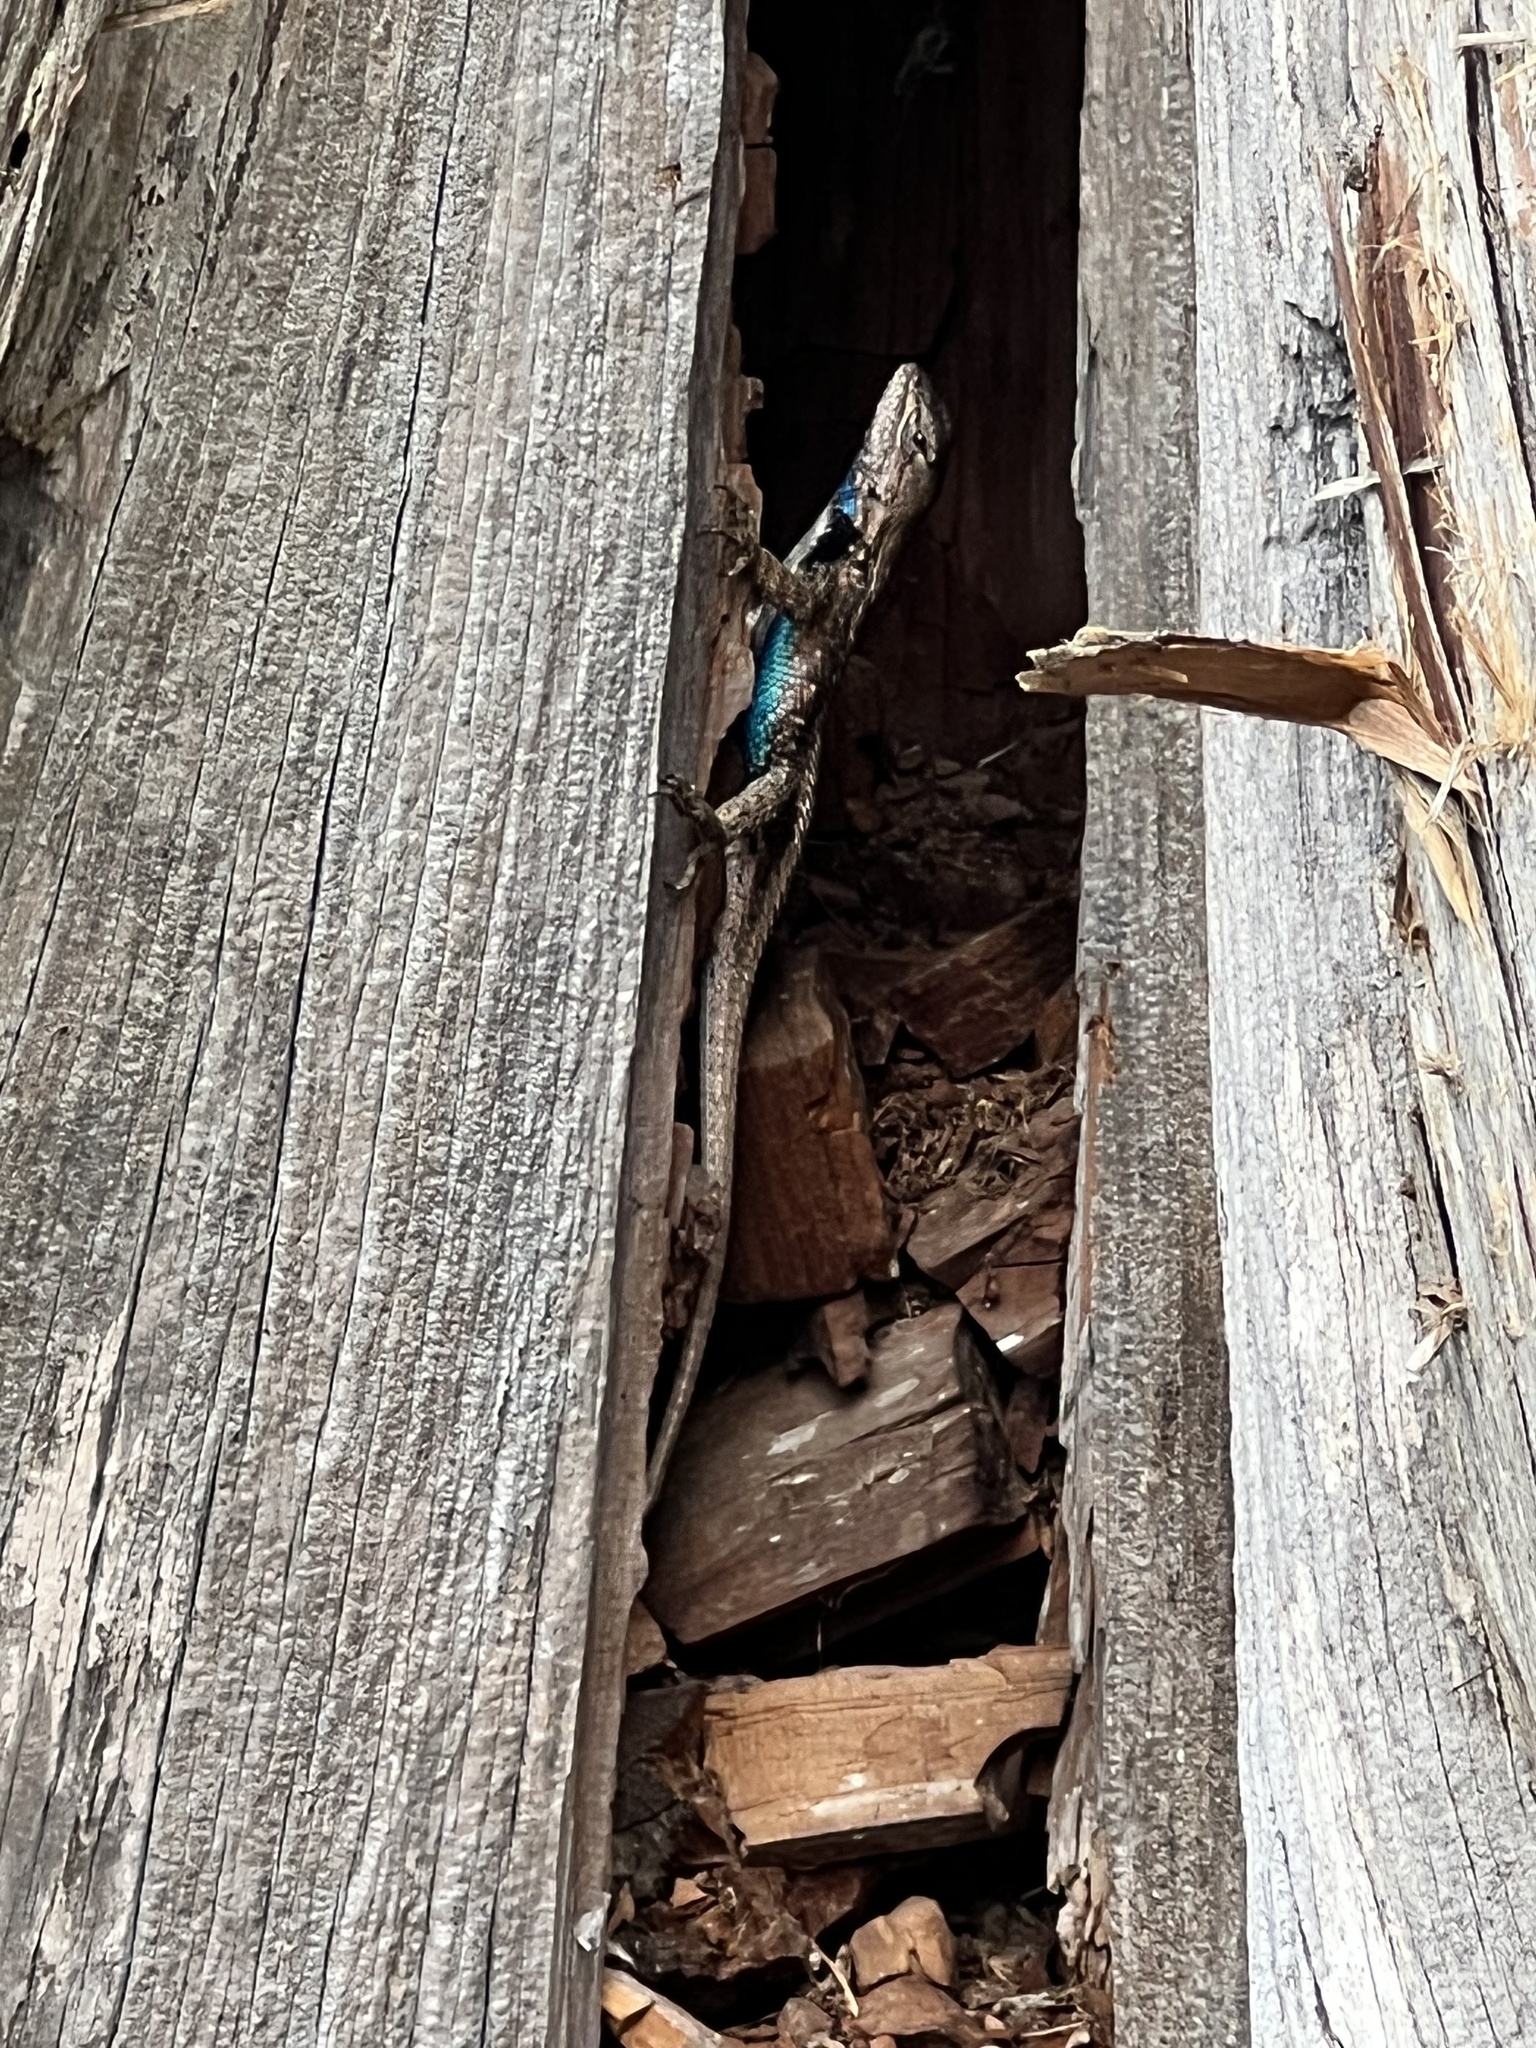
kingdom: Animalia
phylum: Chordata
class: Squamata
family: Phrynosomatidae
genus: Sceloporus
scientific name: Sceloporus consobrinus
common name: Southern prairie lizard
